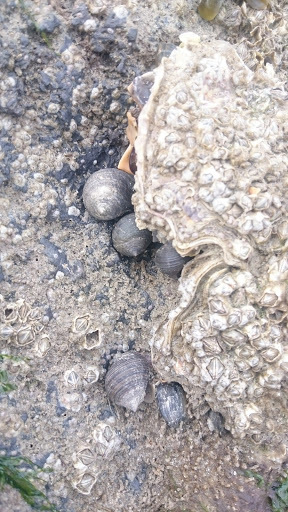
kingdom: Animalia
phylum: Mollusca
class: Gastropoda
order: Littorinimorpha
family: Littorinidae
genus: Littorina
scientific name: Littorina littorea
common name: Common periwinkle
